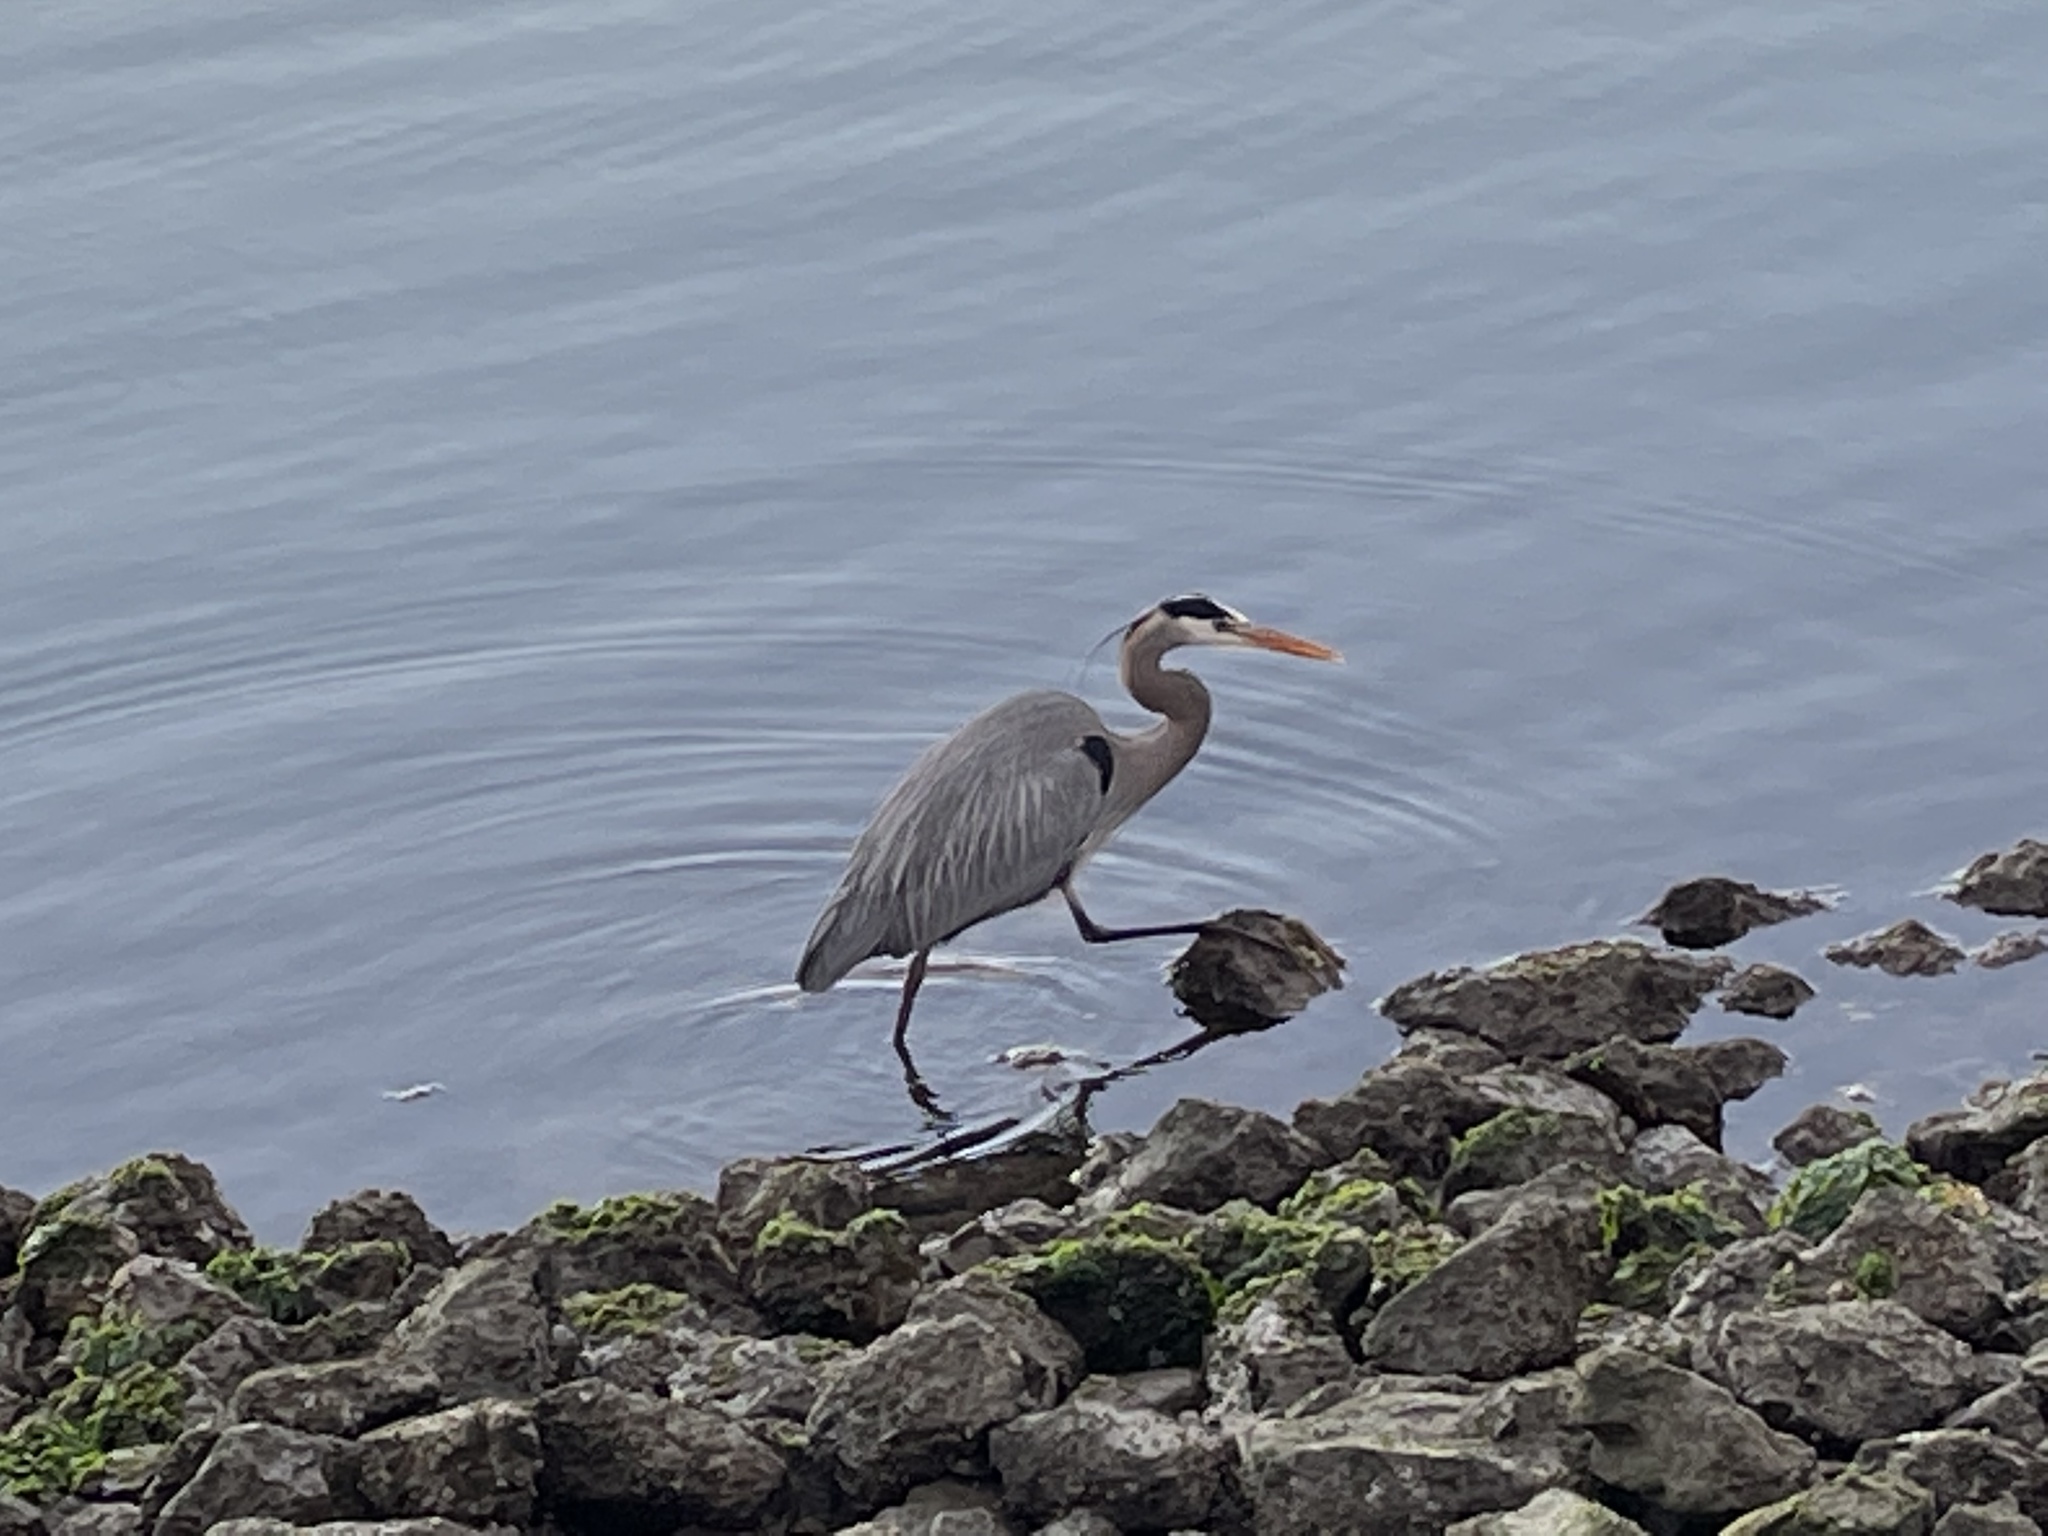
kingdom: Animalia
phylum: Chordata
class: Aves
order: Pelecaniformes
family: Ardeidae
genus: Ardea
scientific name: Ardea herodias
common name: Great blue heron
